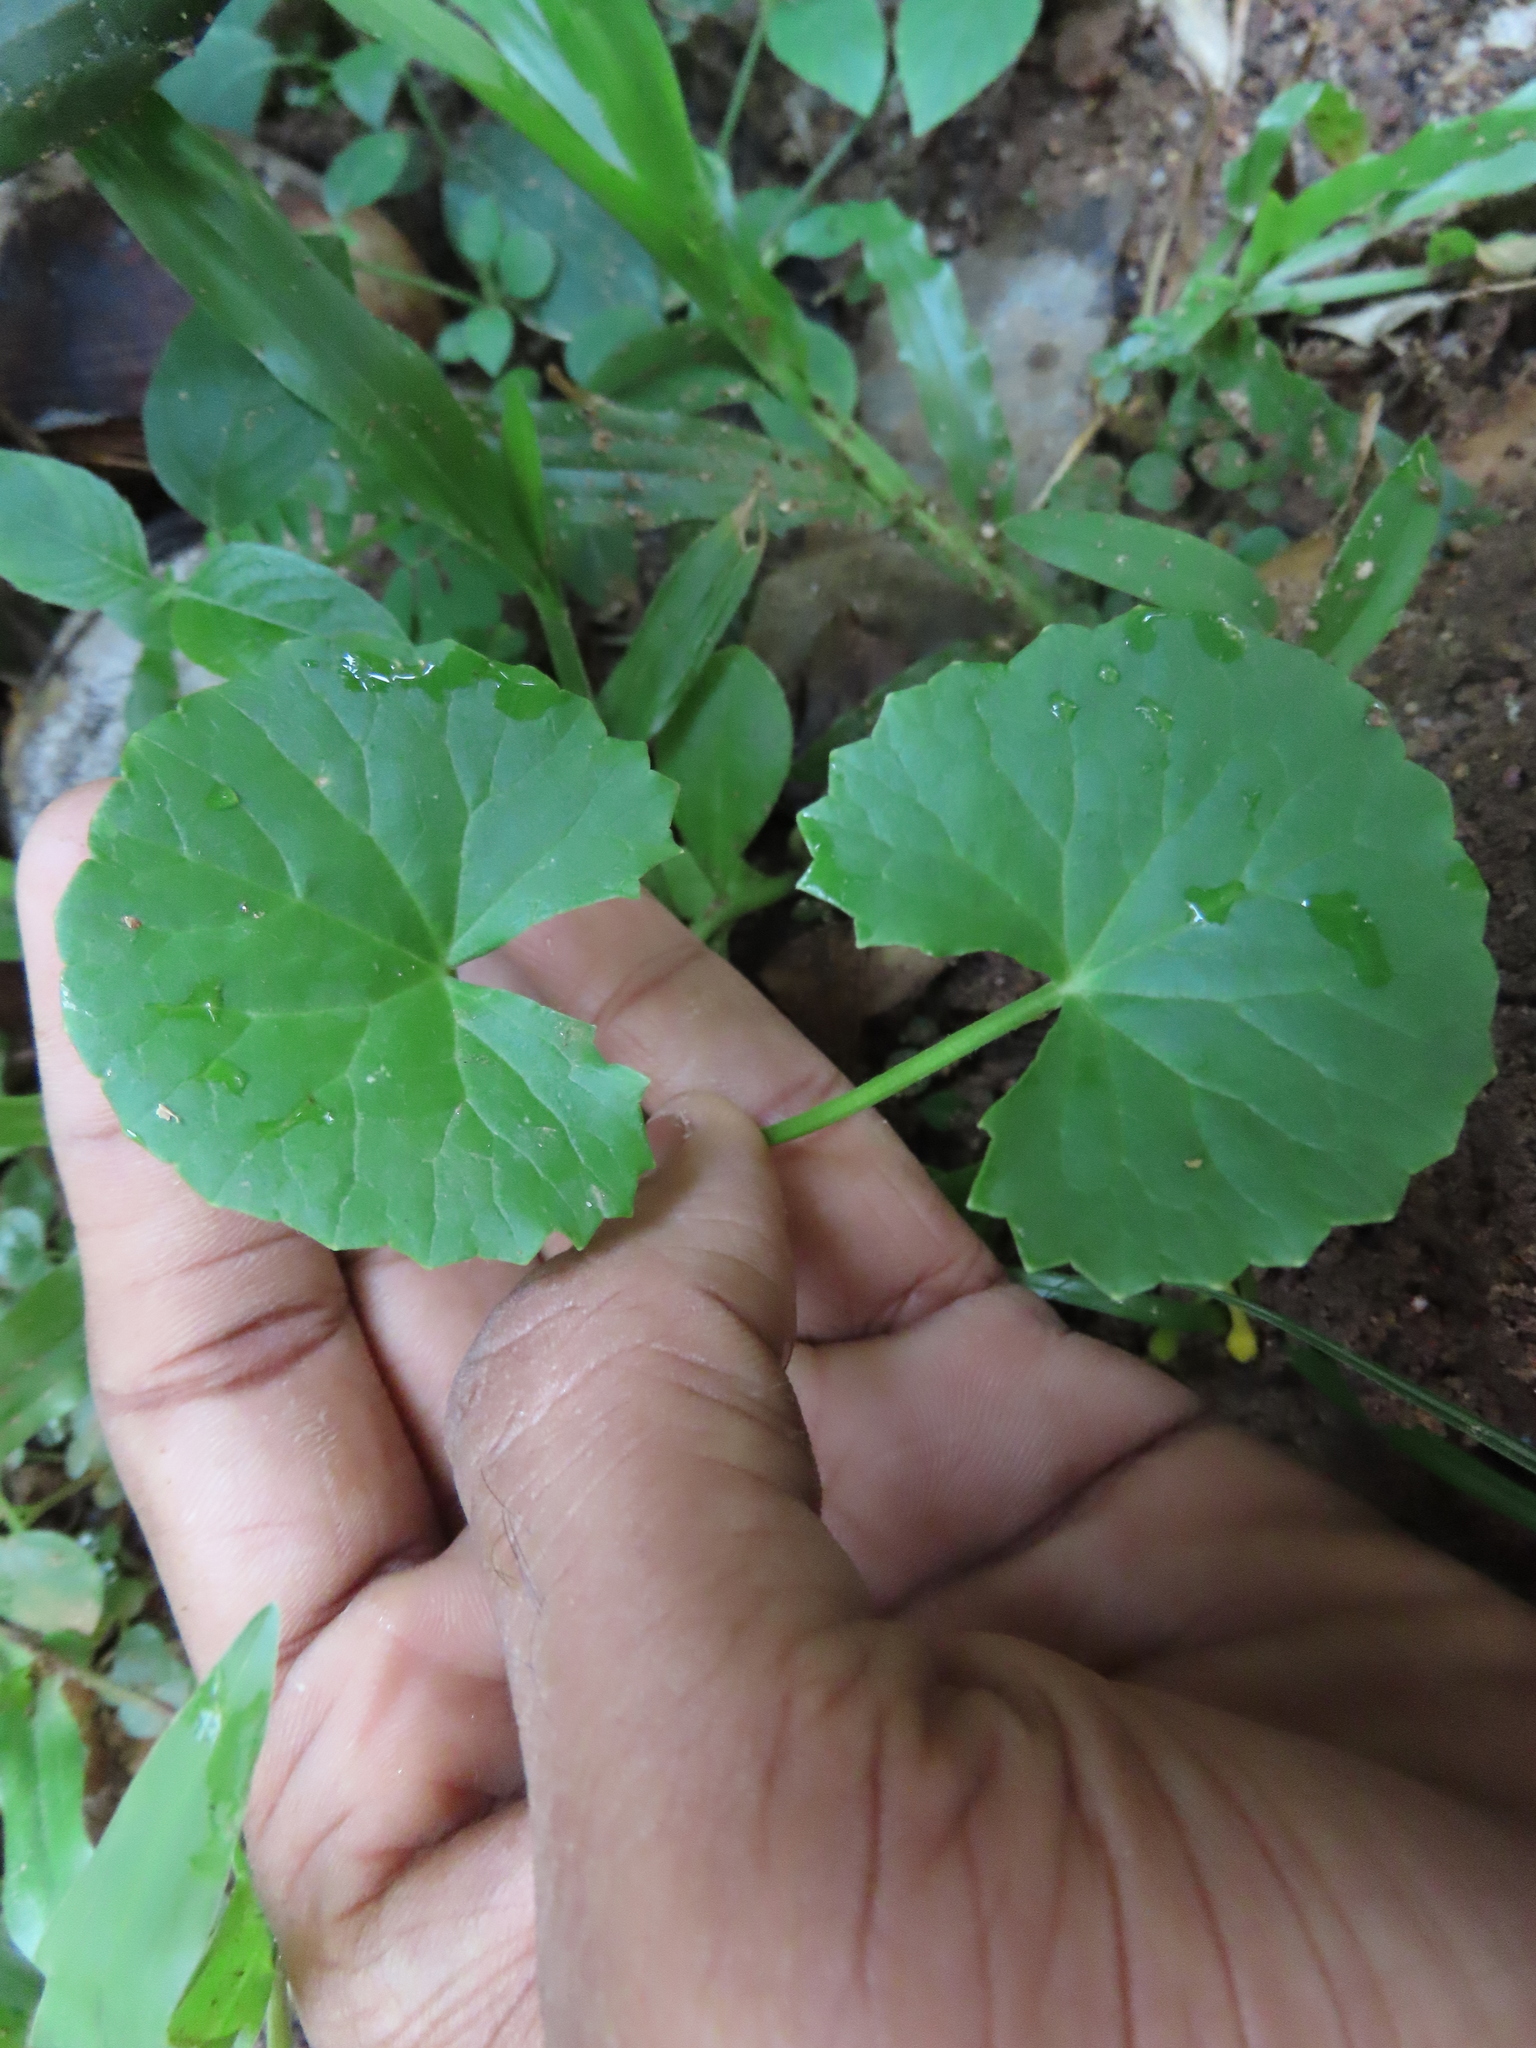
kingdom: Plantae
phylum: Tracheophyta
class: Magnoliopsida
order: Apiales
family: Apiaceae
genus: Centella
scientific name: Centella asiatica
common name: Spadeleaf
